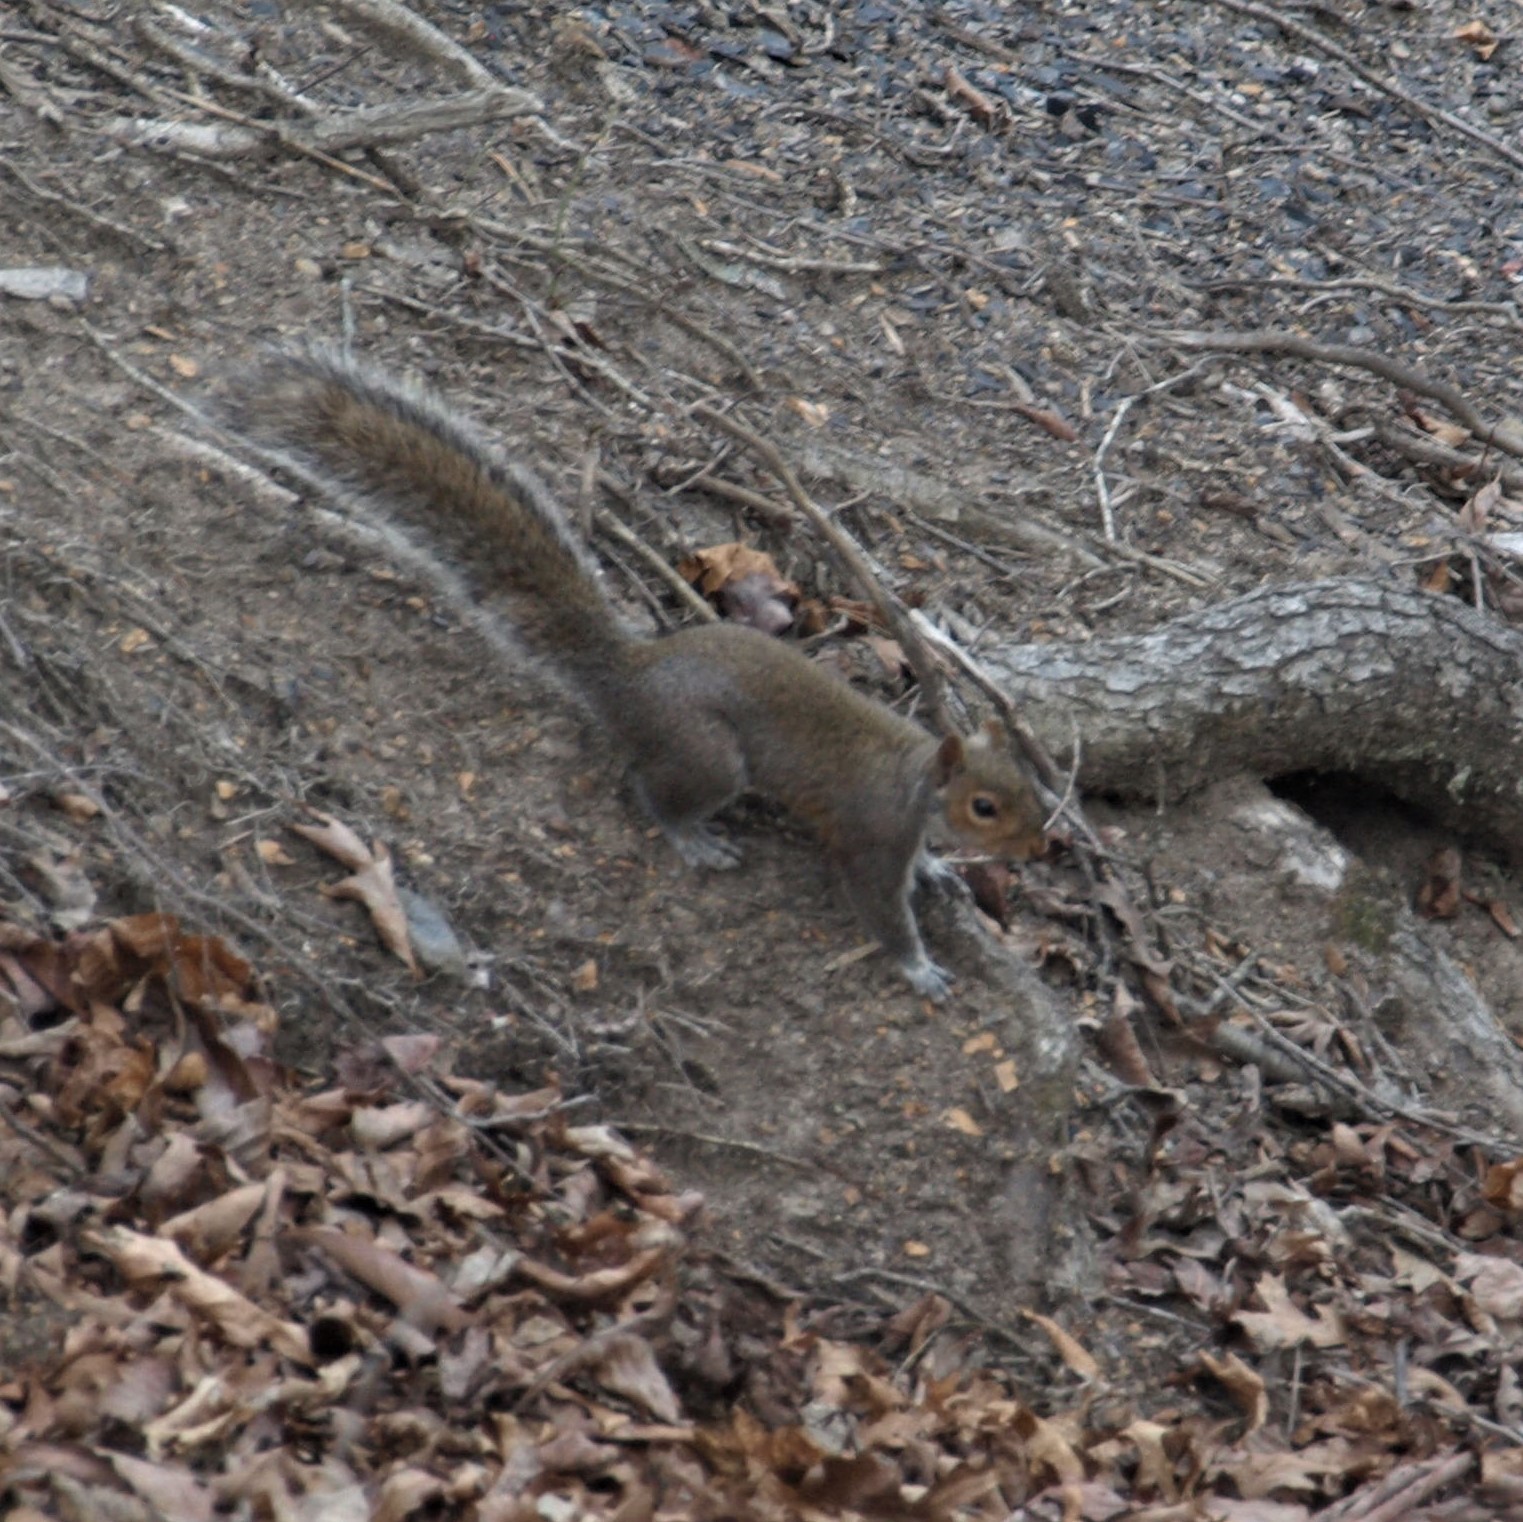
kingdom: Animalia
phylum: Chordata
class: Mammalia
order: Rodentia
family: Sciuridae
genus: Sciurus
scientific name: Sciurus carolinensis
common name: Eastern gray squirrel
